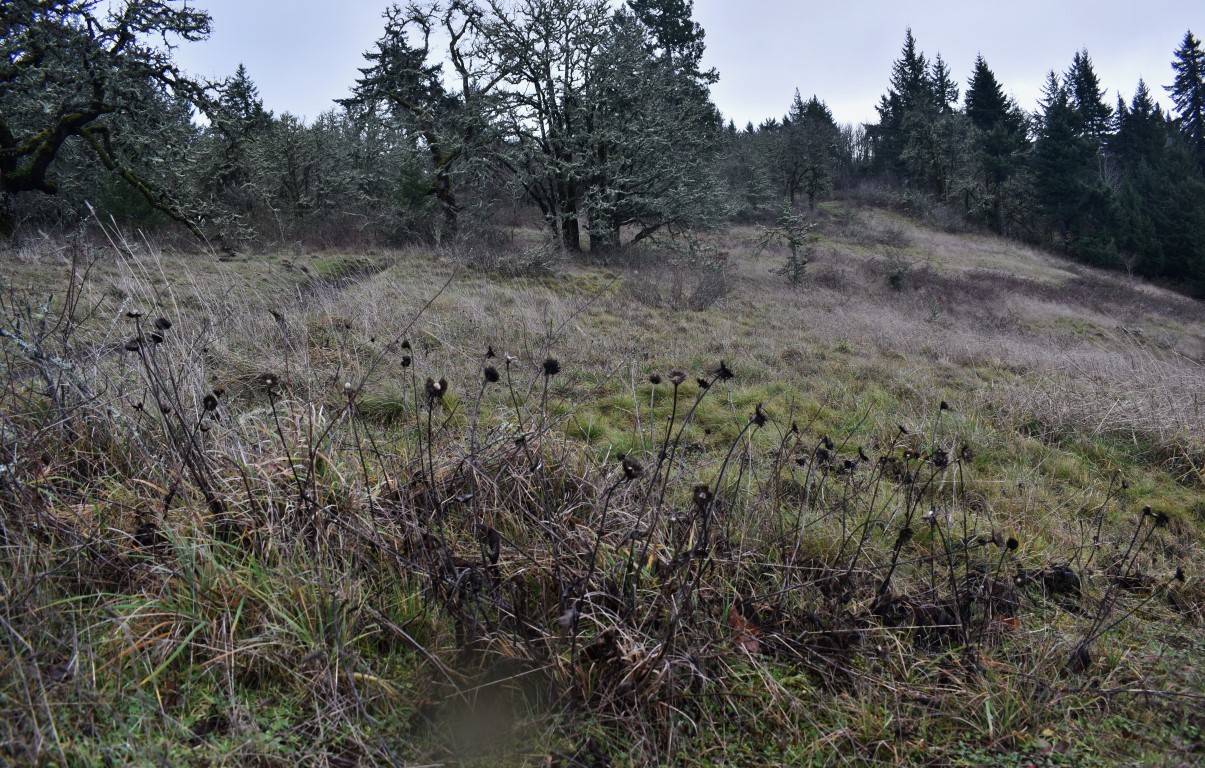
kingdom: Plantae
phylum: Tracheophyta
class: Magnoliopsida
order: Asterales
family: Asteraceae
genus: Wyethia
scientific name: Wyethia angustifolia
